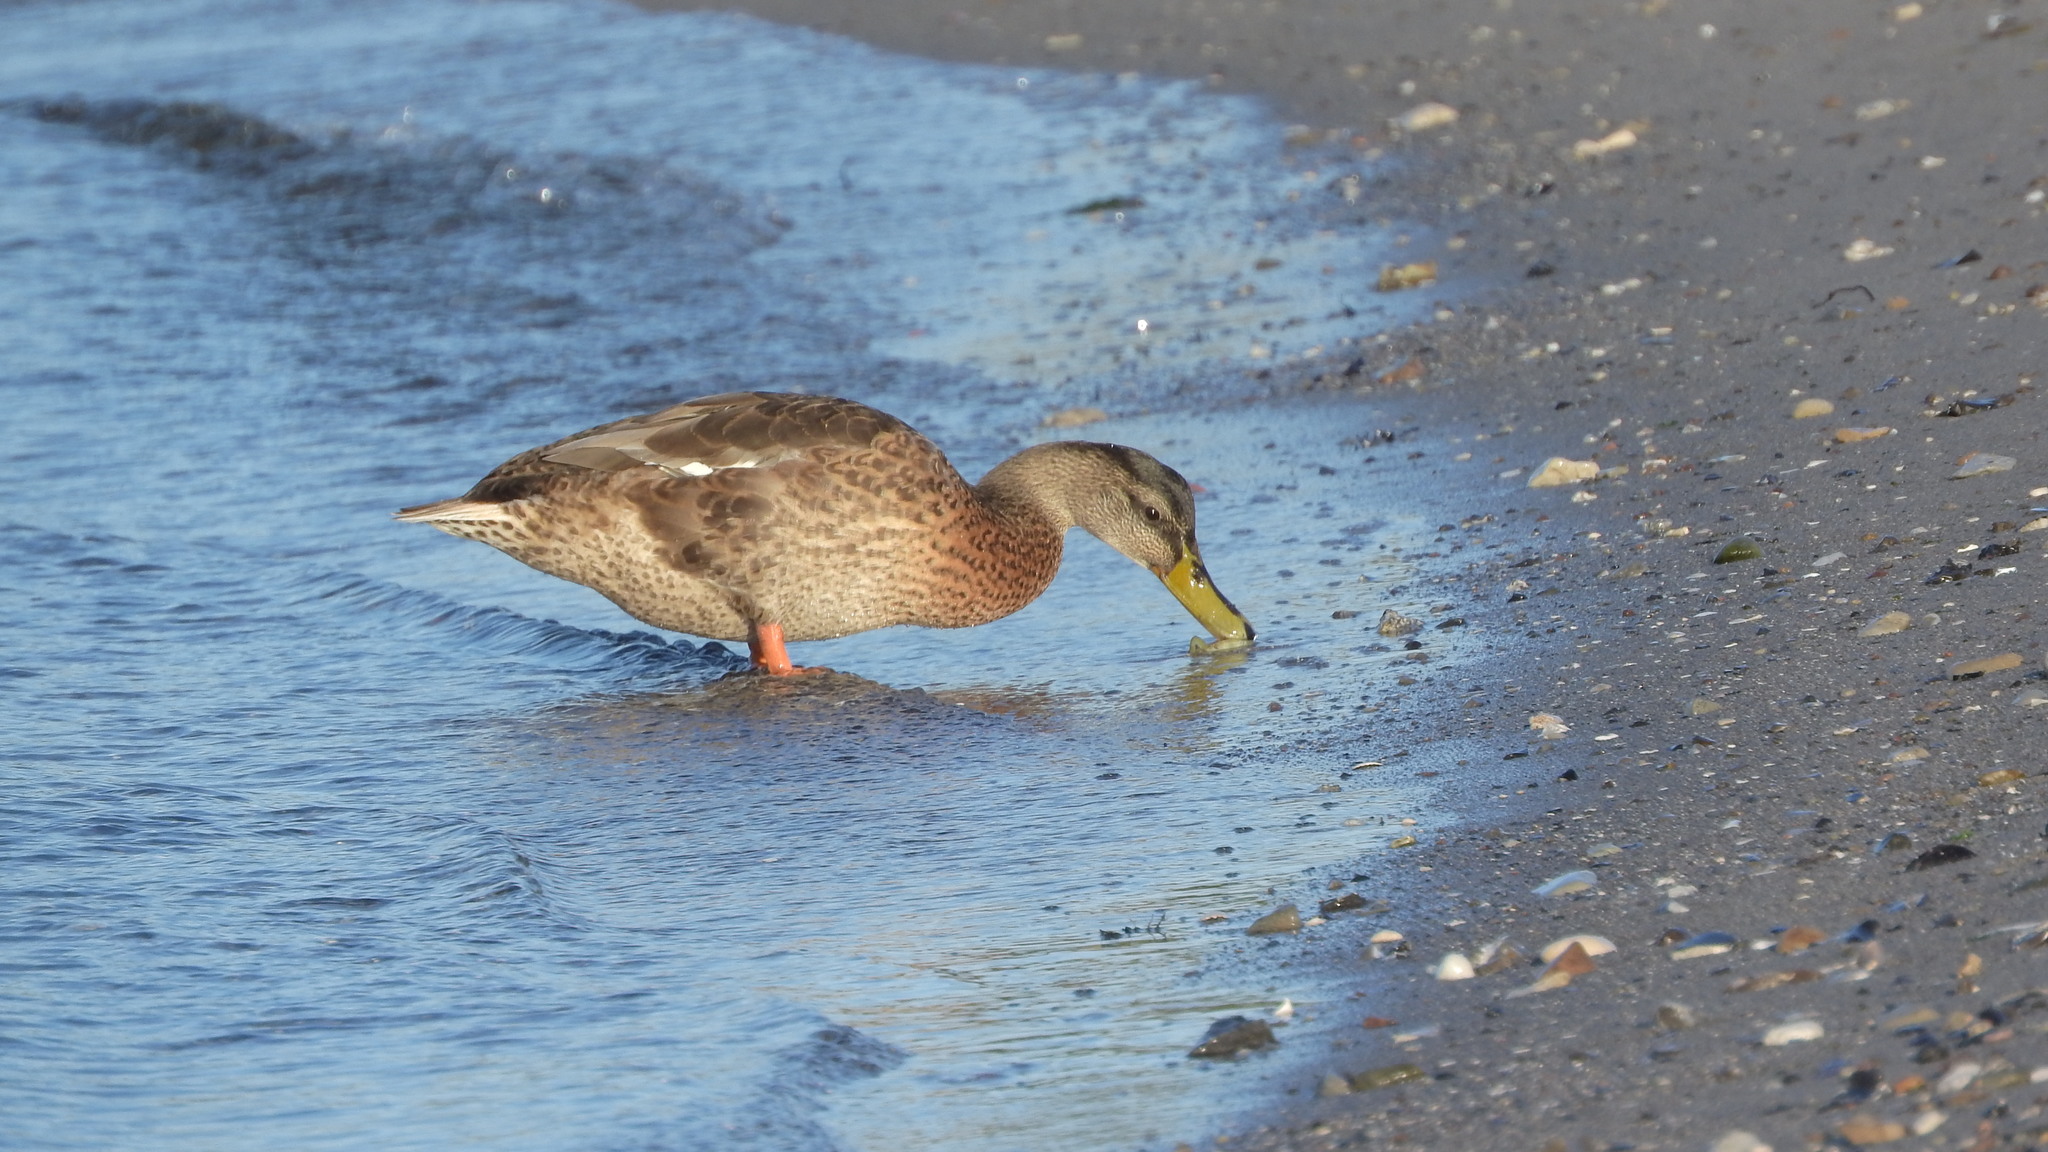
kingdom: Animalia
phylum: Chordata
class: Aves
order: Anseriformes
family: Anatidae
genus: Anas
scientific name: Anas platyrhynchos
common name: Mallard
